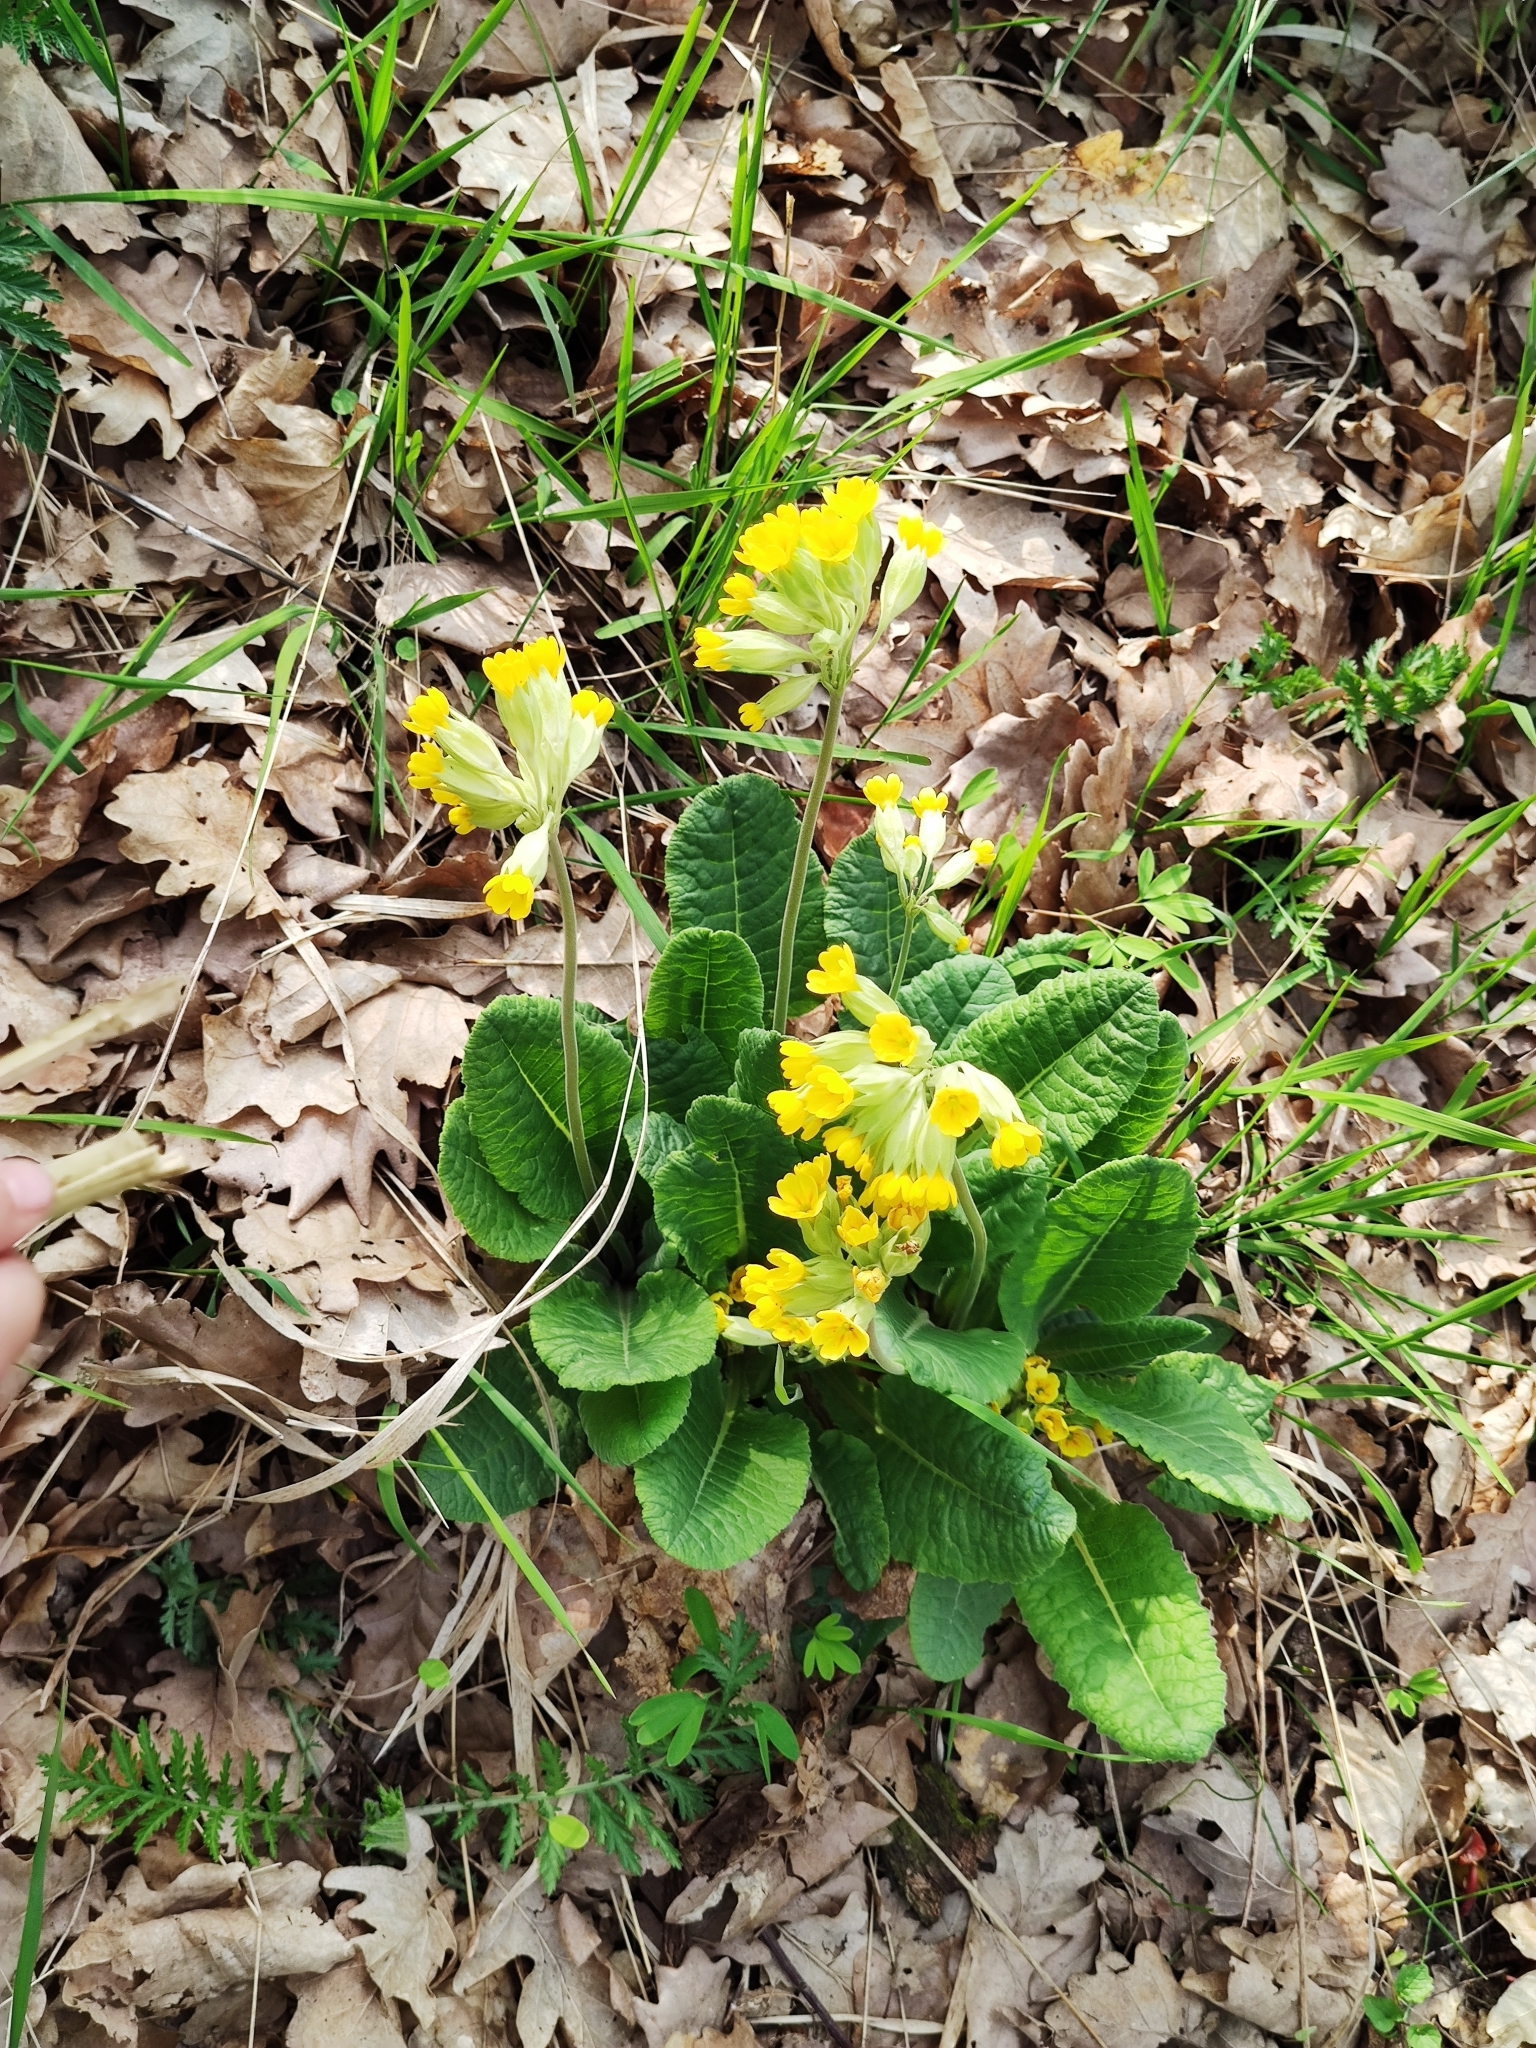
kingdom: Plantae
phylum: Tracheophyta
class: Magnoliopsida
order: Ericales
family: Primulaceae
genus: Primula
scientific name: Primula veris
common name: Cowslip
